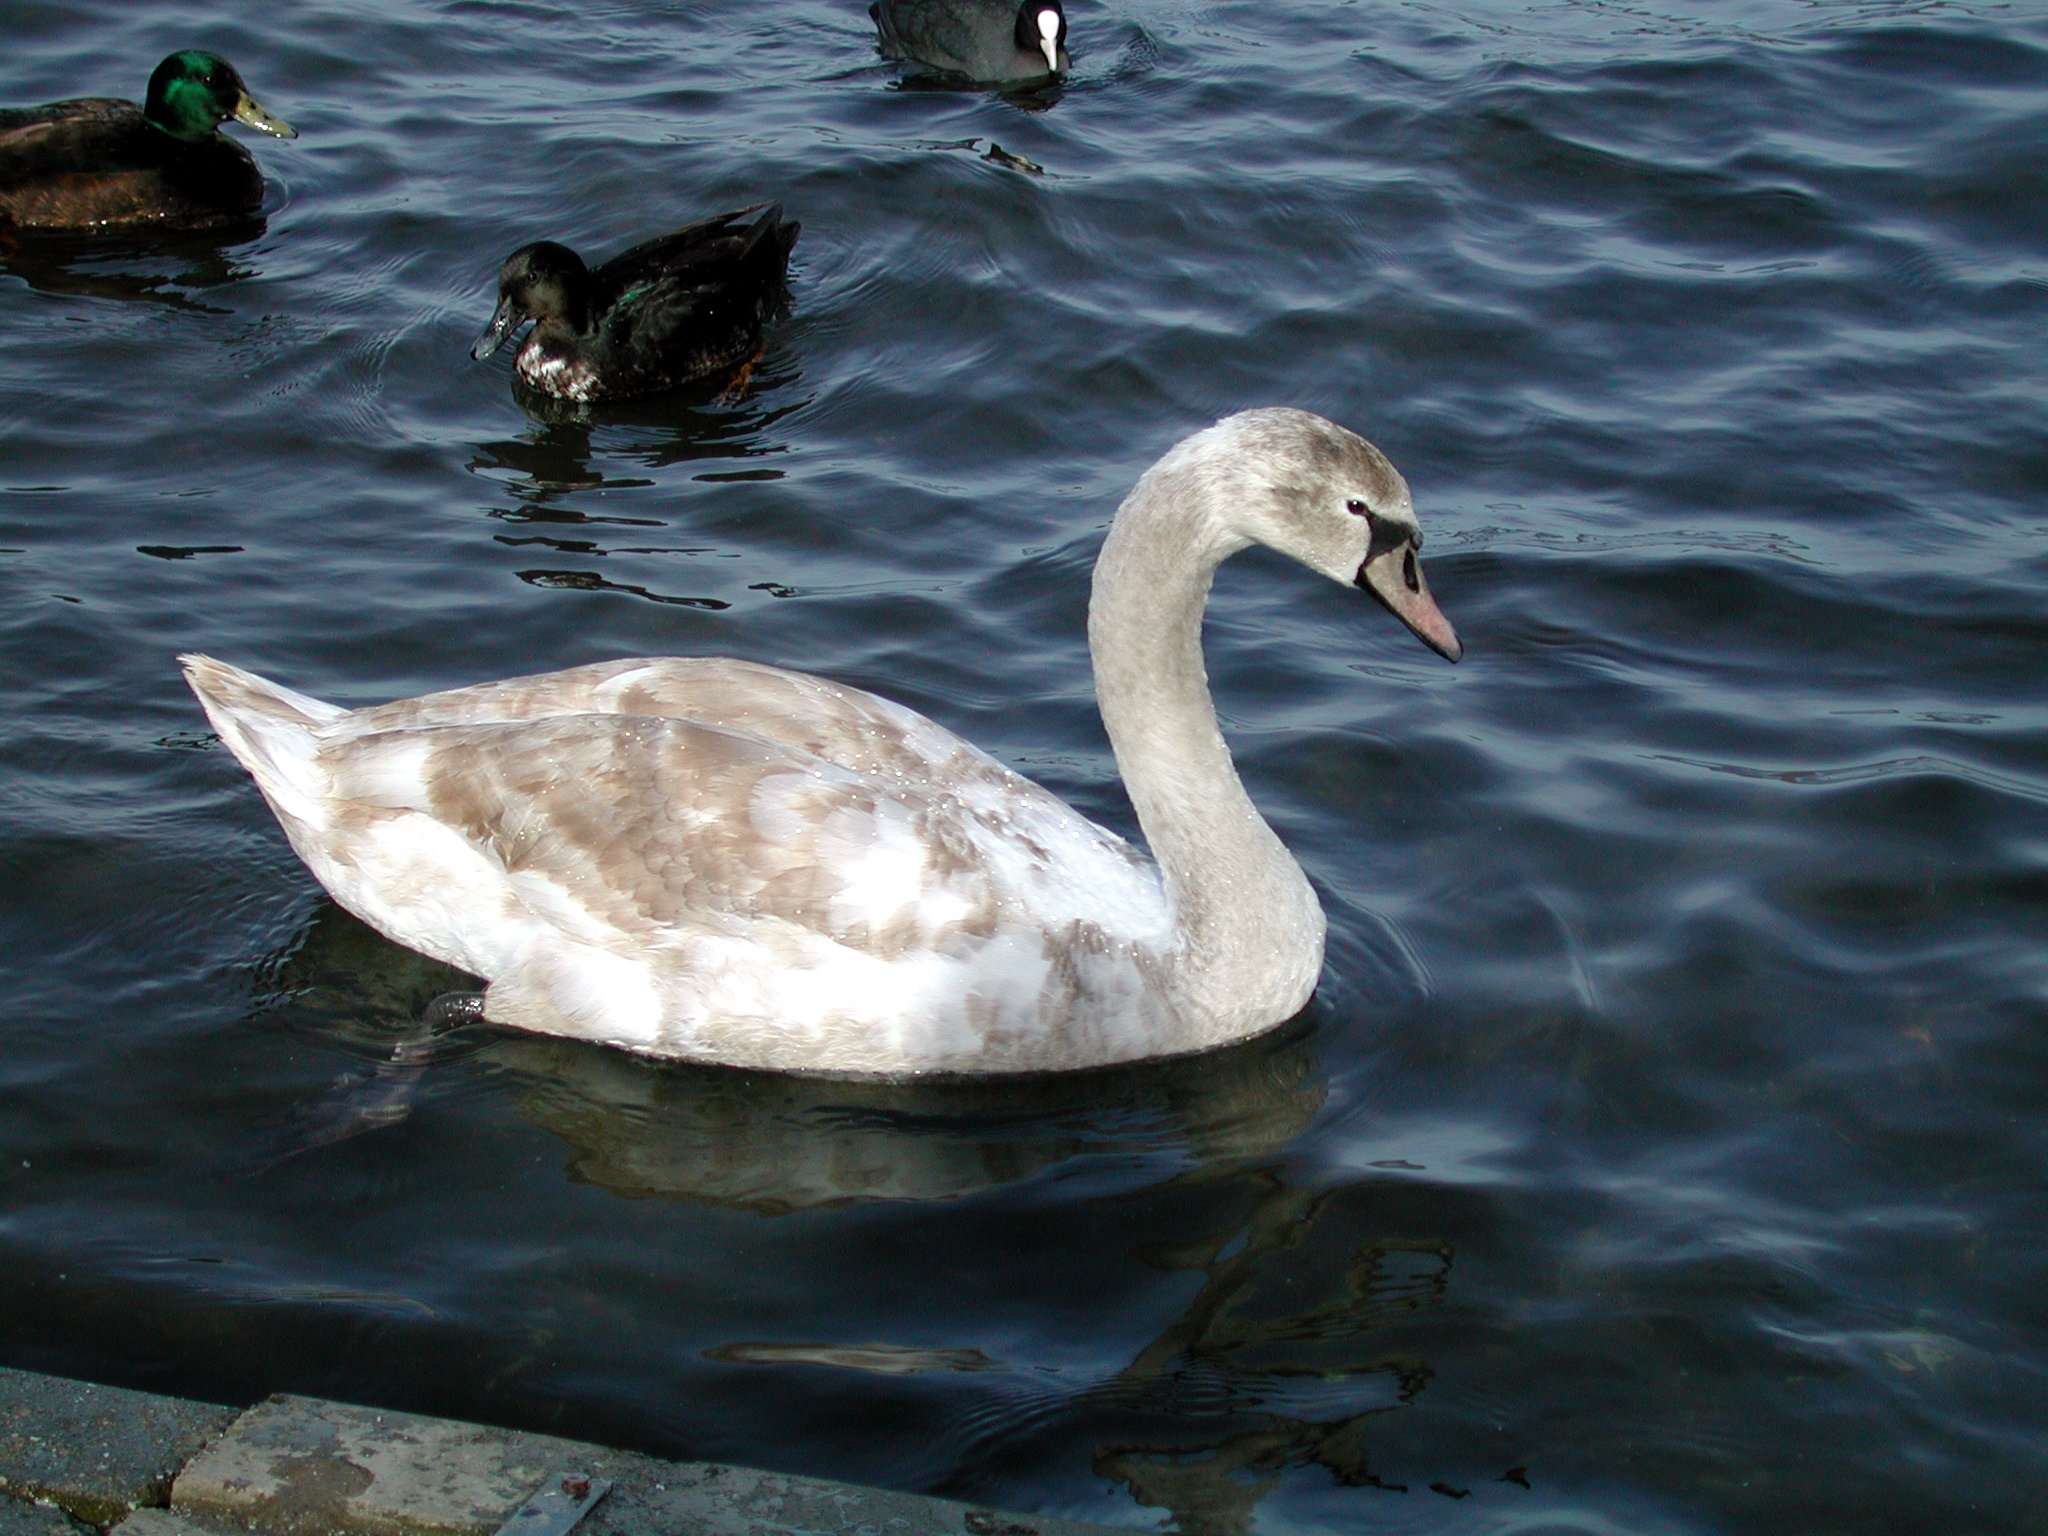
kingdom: Animalia
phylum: Chordata
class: Aves
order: Anseriformes
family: Anatidae
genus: Cygnus
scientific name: Cygnus olor
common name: Mute swan
